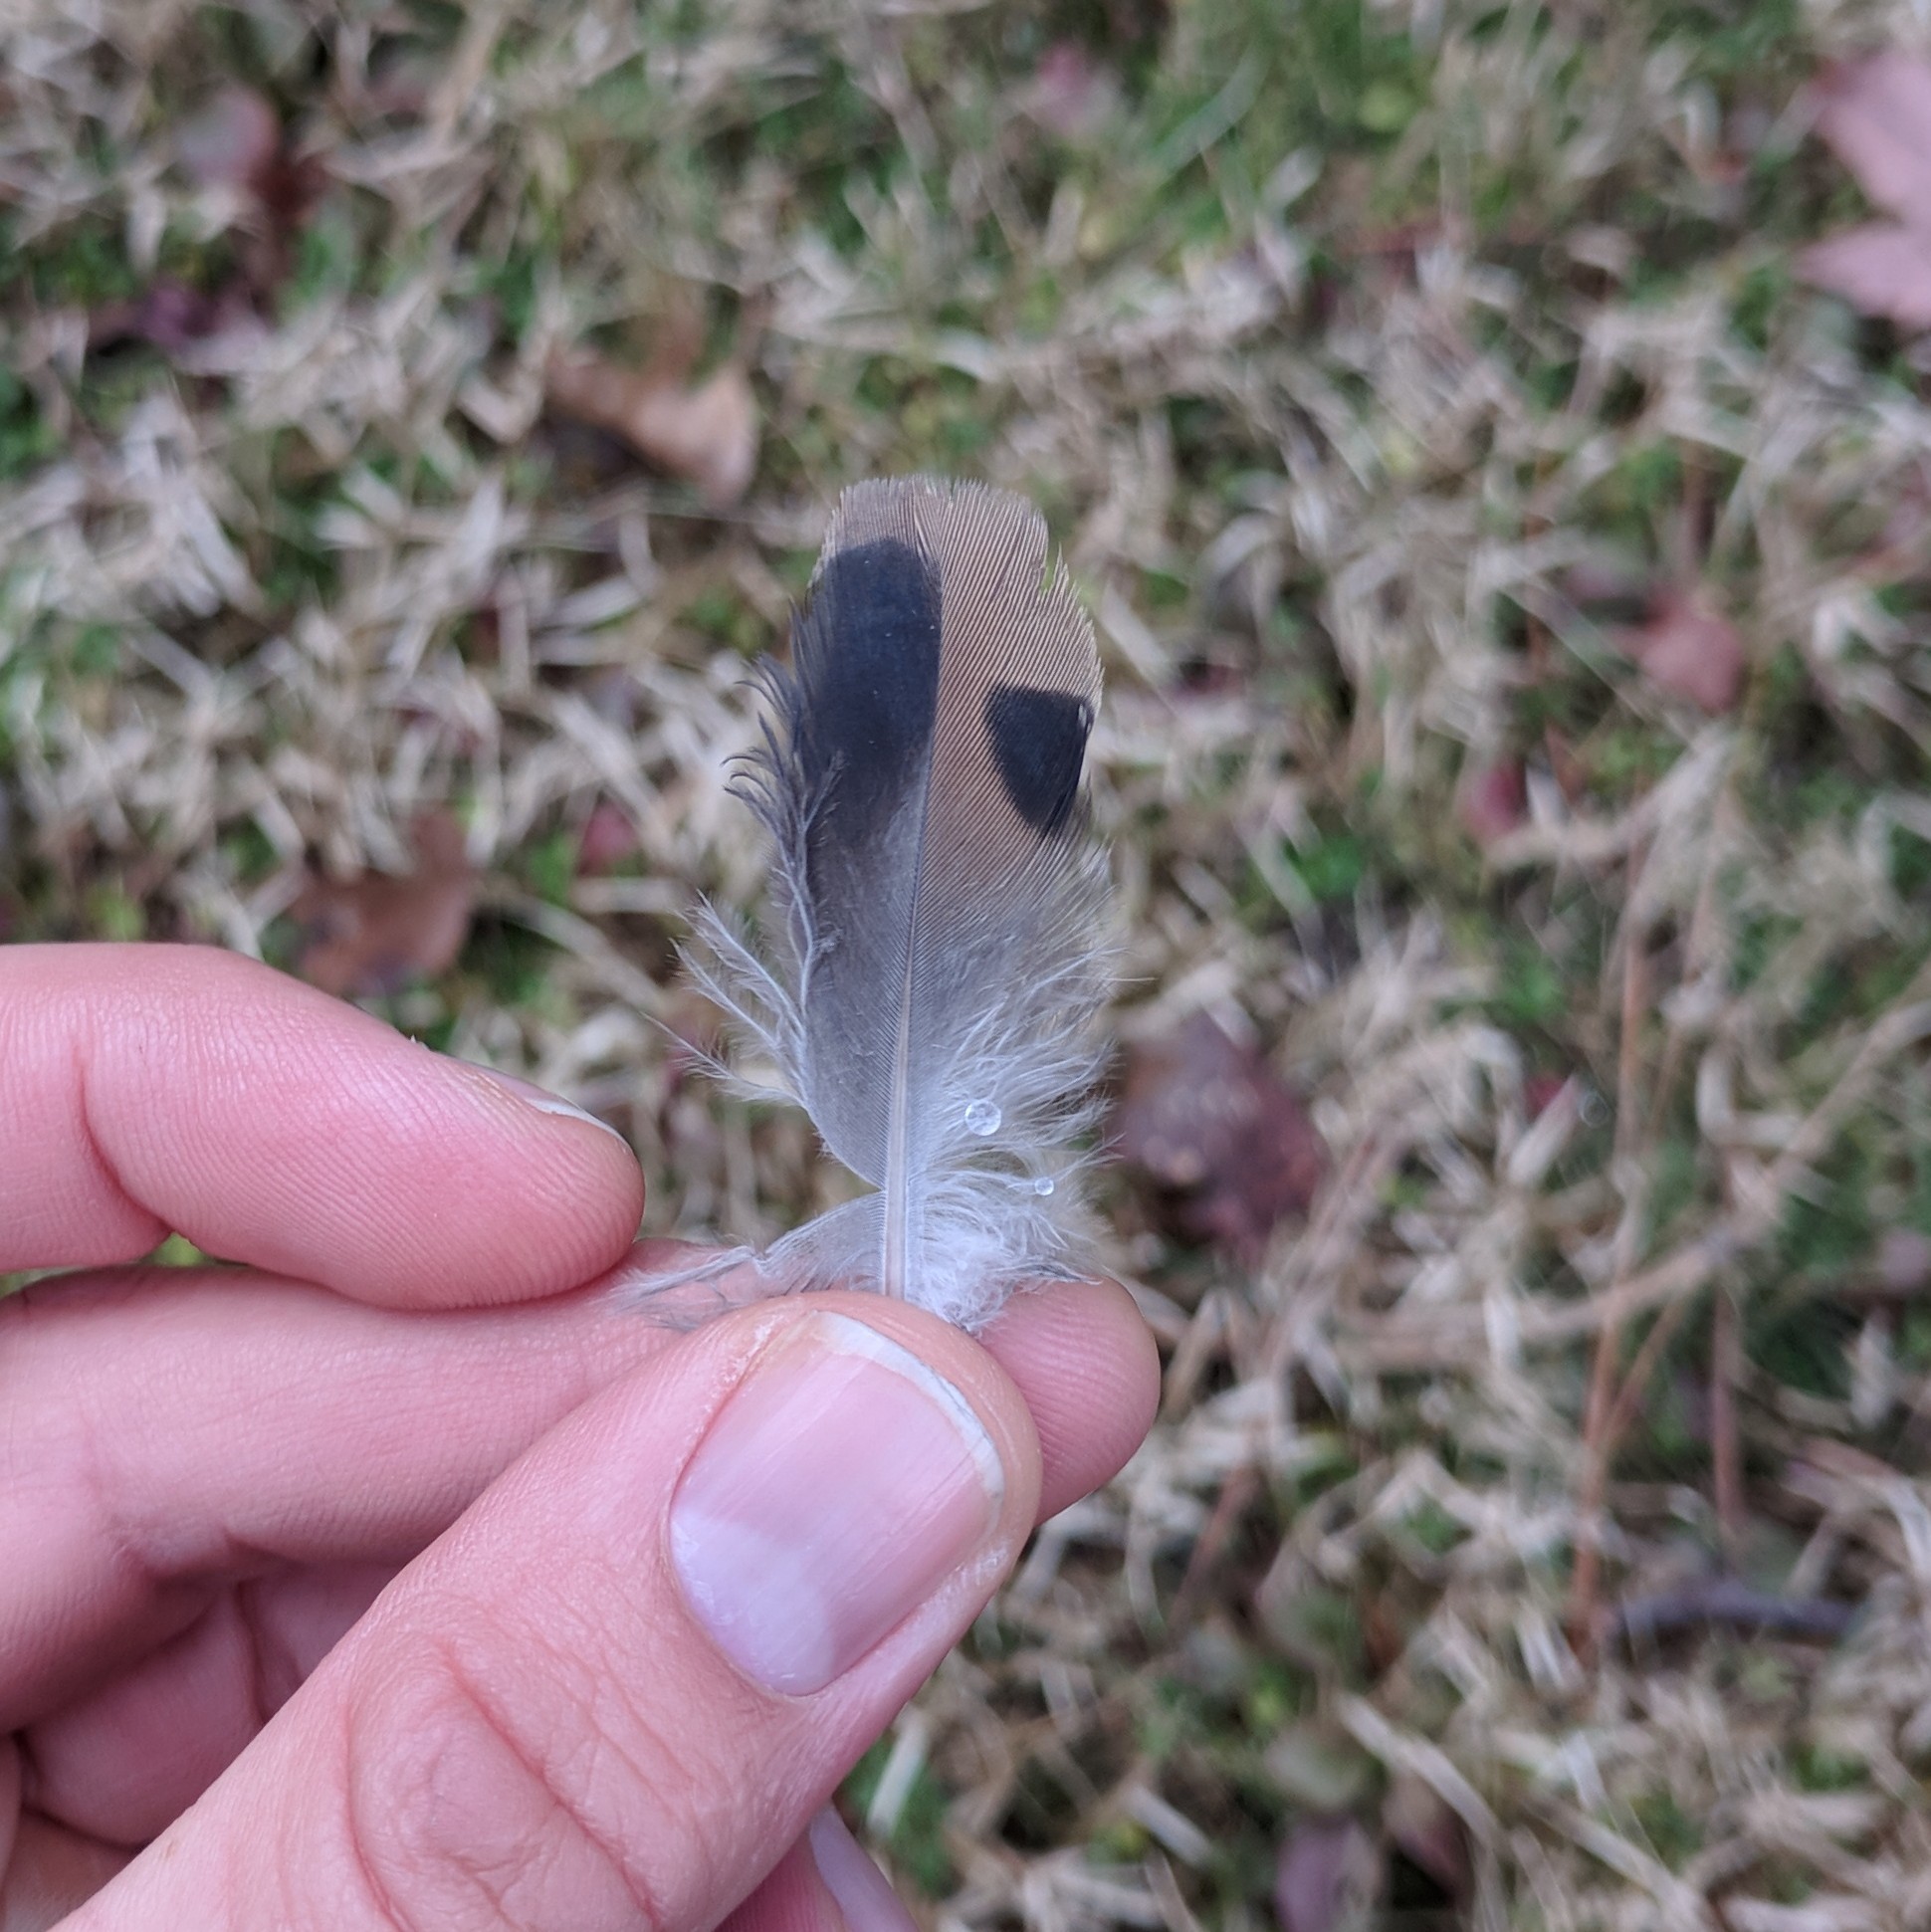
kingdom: Animalia
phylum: Chordata
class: Aves
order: Columbiformes
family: Columbidae
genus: Zenaida
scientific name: Zenaida macroura
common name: Mourning dove
